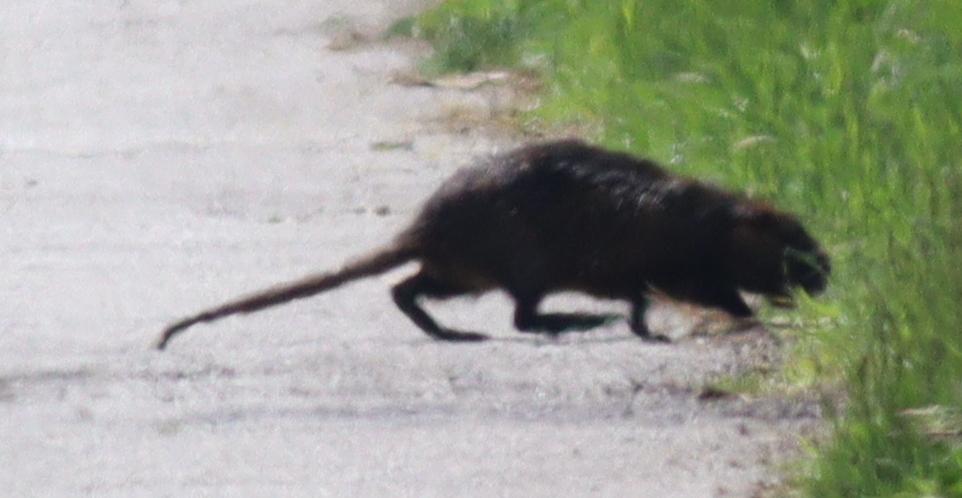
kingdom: Animalia
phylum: Chordata
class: Mammalia
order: Rodentia
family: Myocastoridae
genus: Myocastor
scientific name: Myocastor coypus
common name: Coypu
